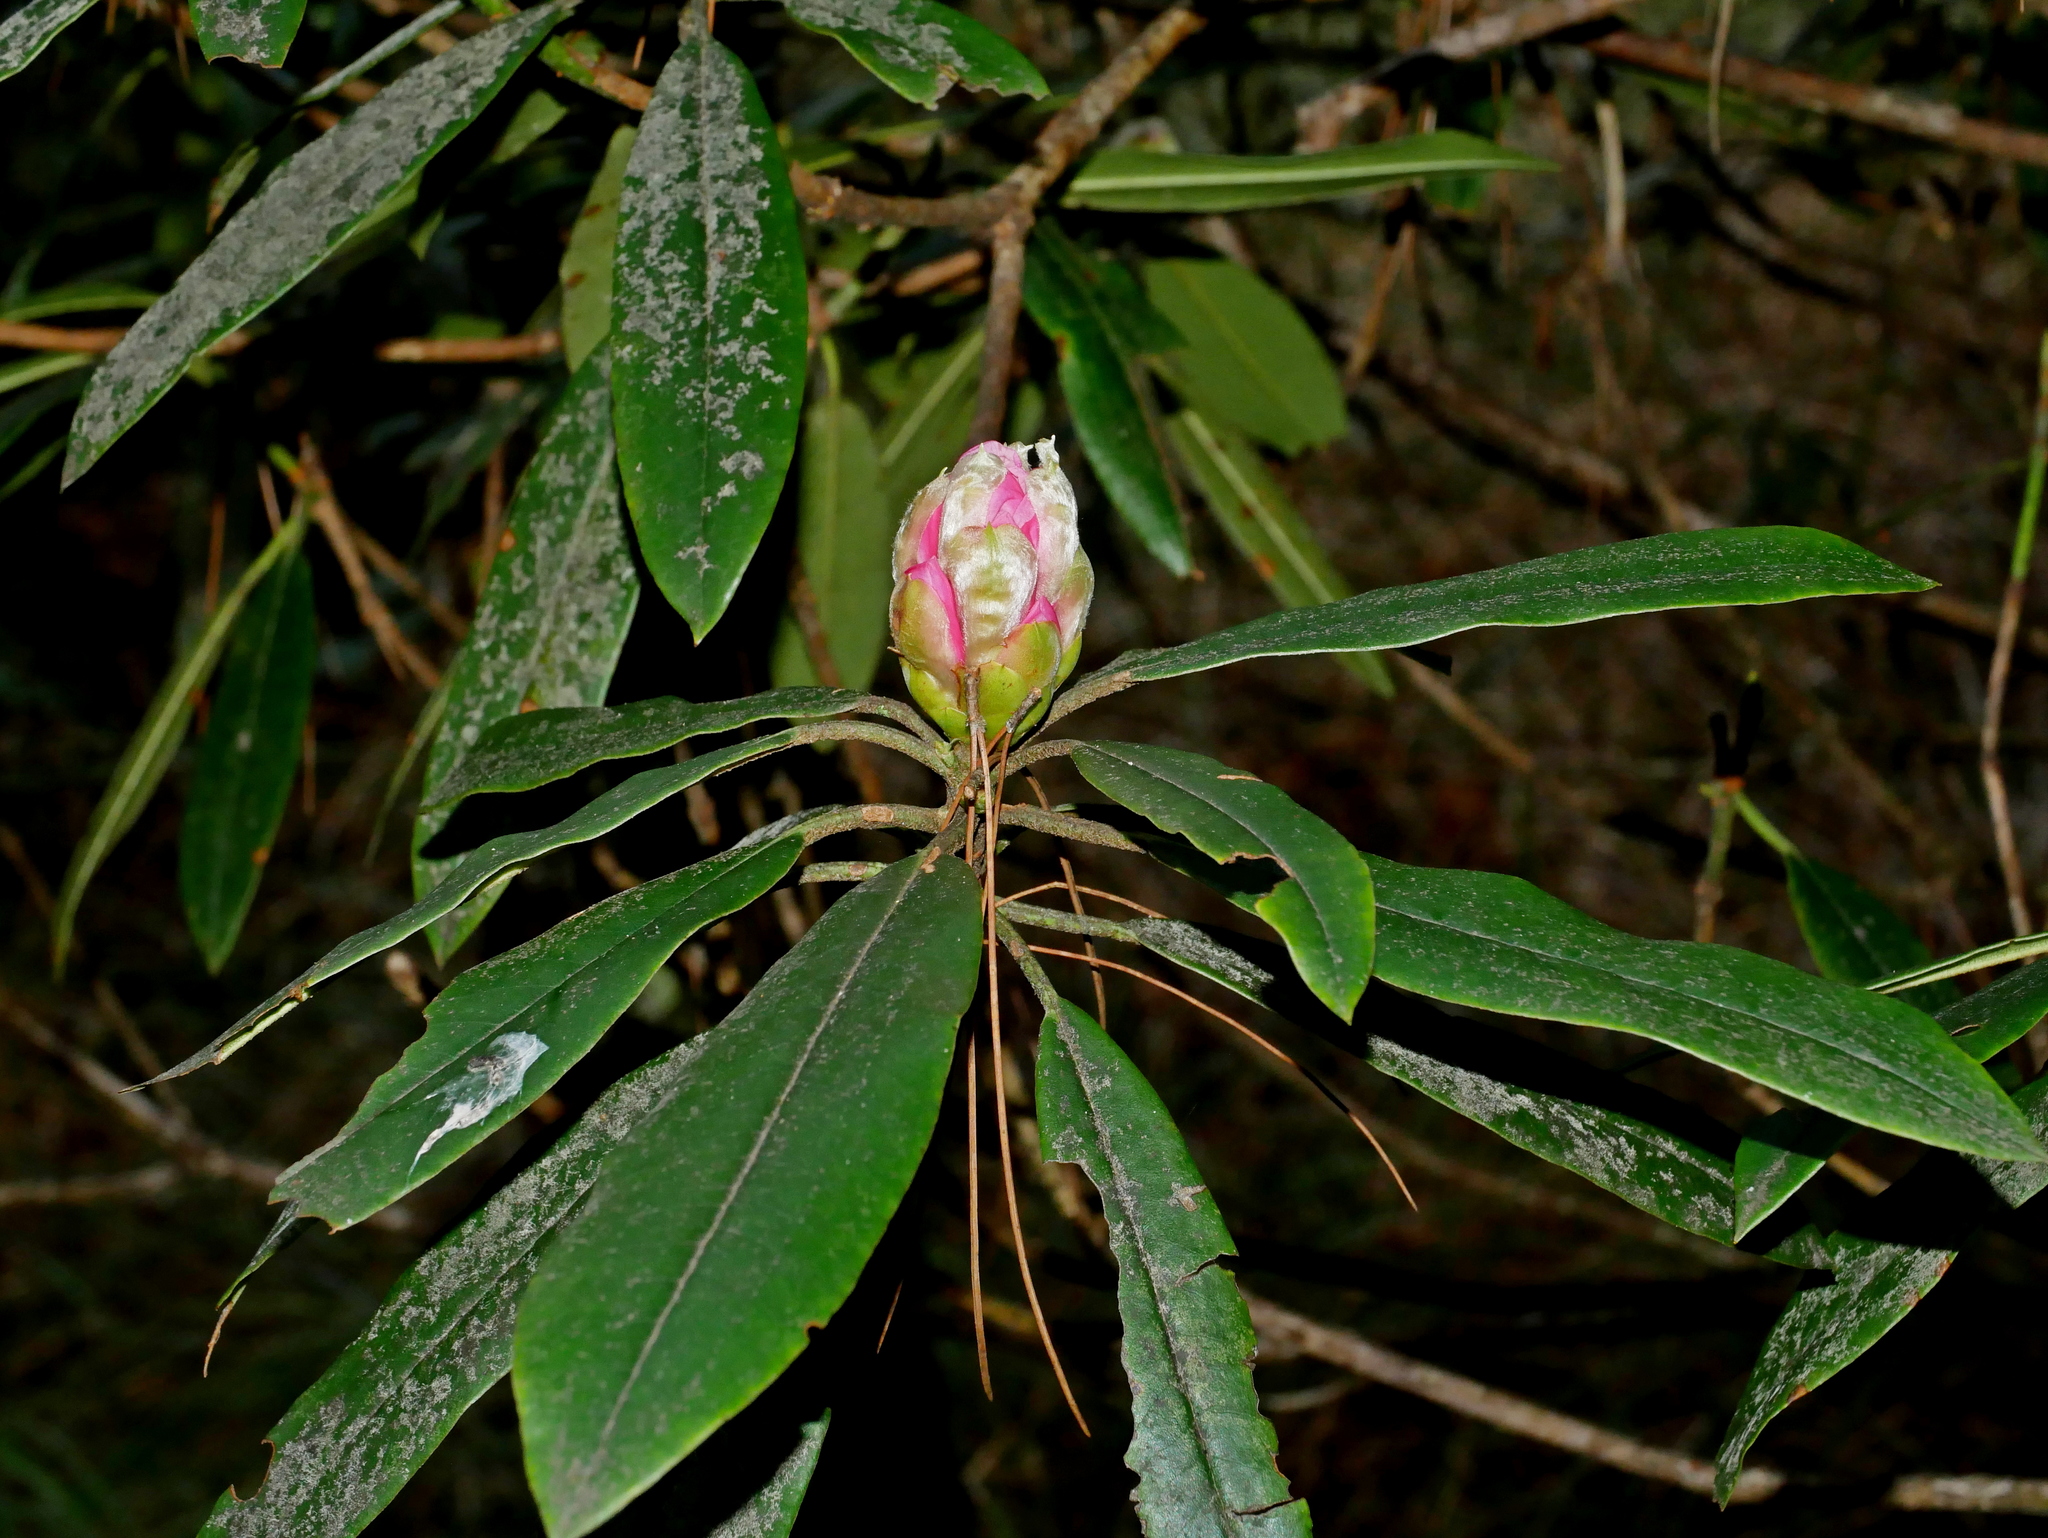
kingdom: Plantae
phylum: Tracheophyta
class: Magnoliopsida
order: Ericales
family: Ericaceae
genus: Rhododendron
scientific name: Rhododendron pseudochrysanthum
